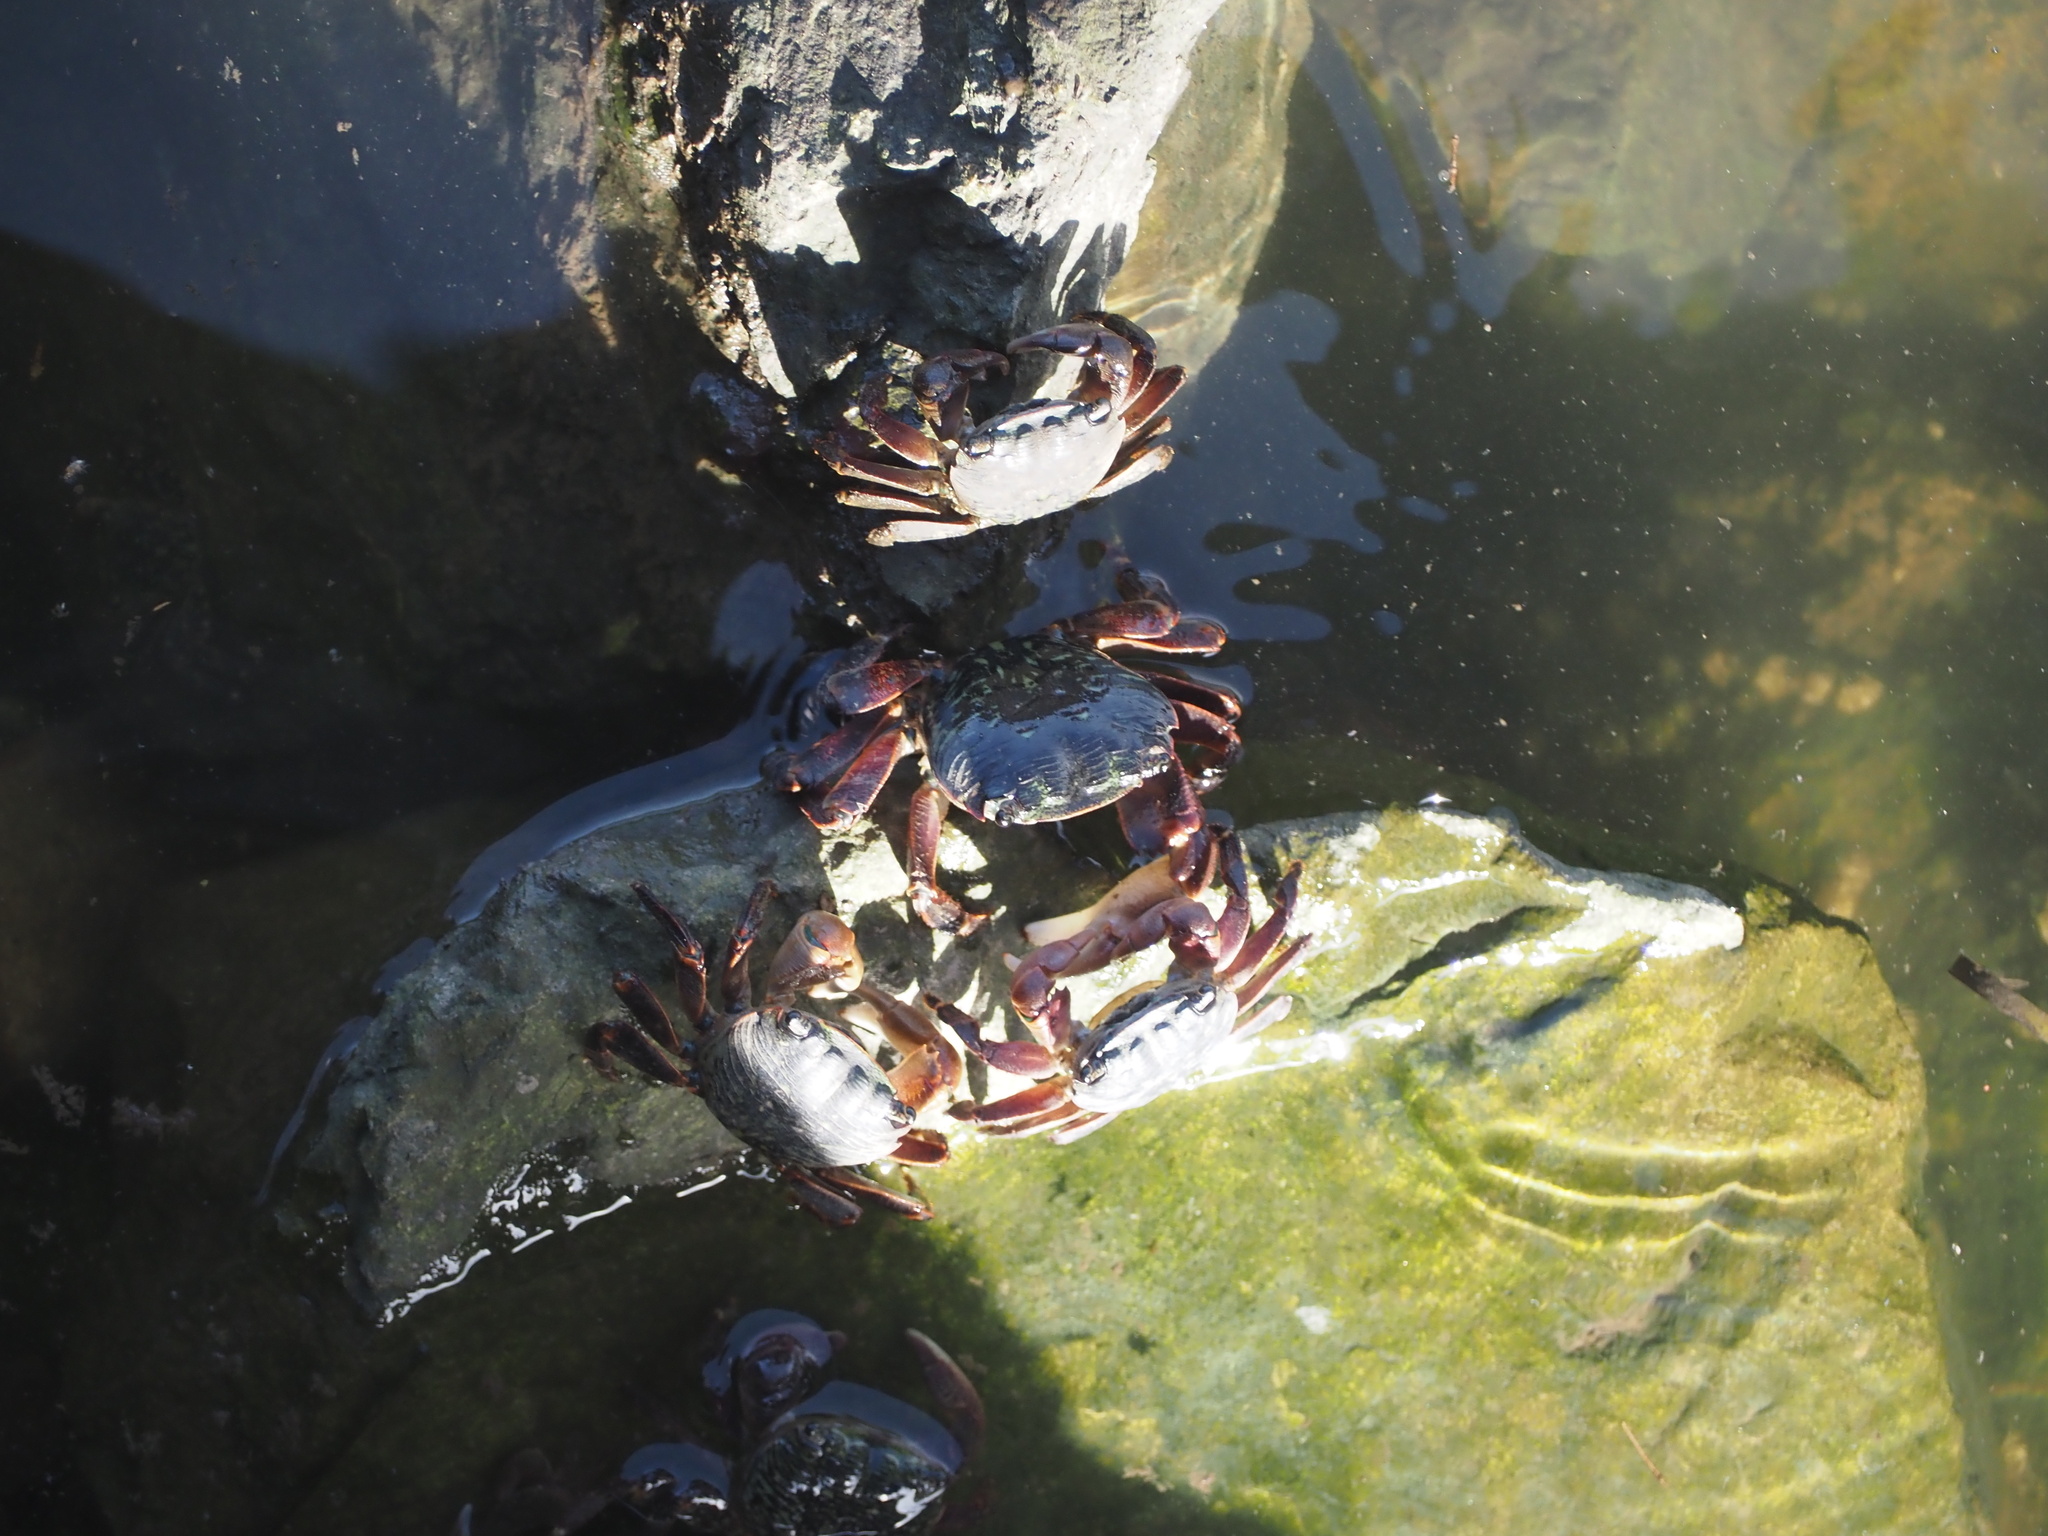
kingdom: Animalia
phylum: Arthropoda
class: Malacostraca
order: Decapoda
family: Grapsidae
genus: Pachygrapsus
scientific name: Pachygrapsus crassipes
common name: Striped shore crab
